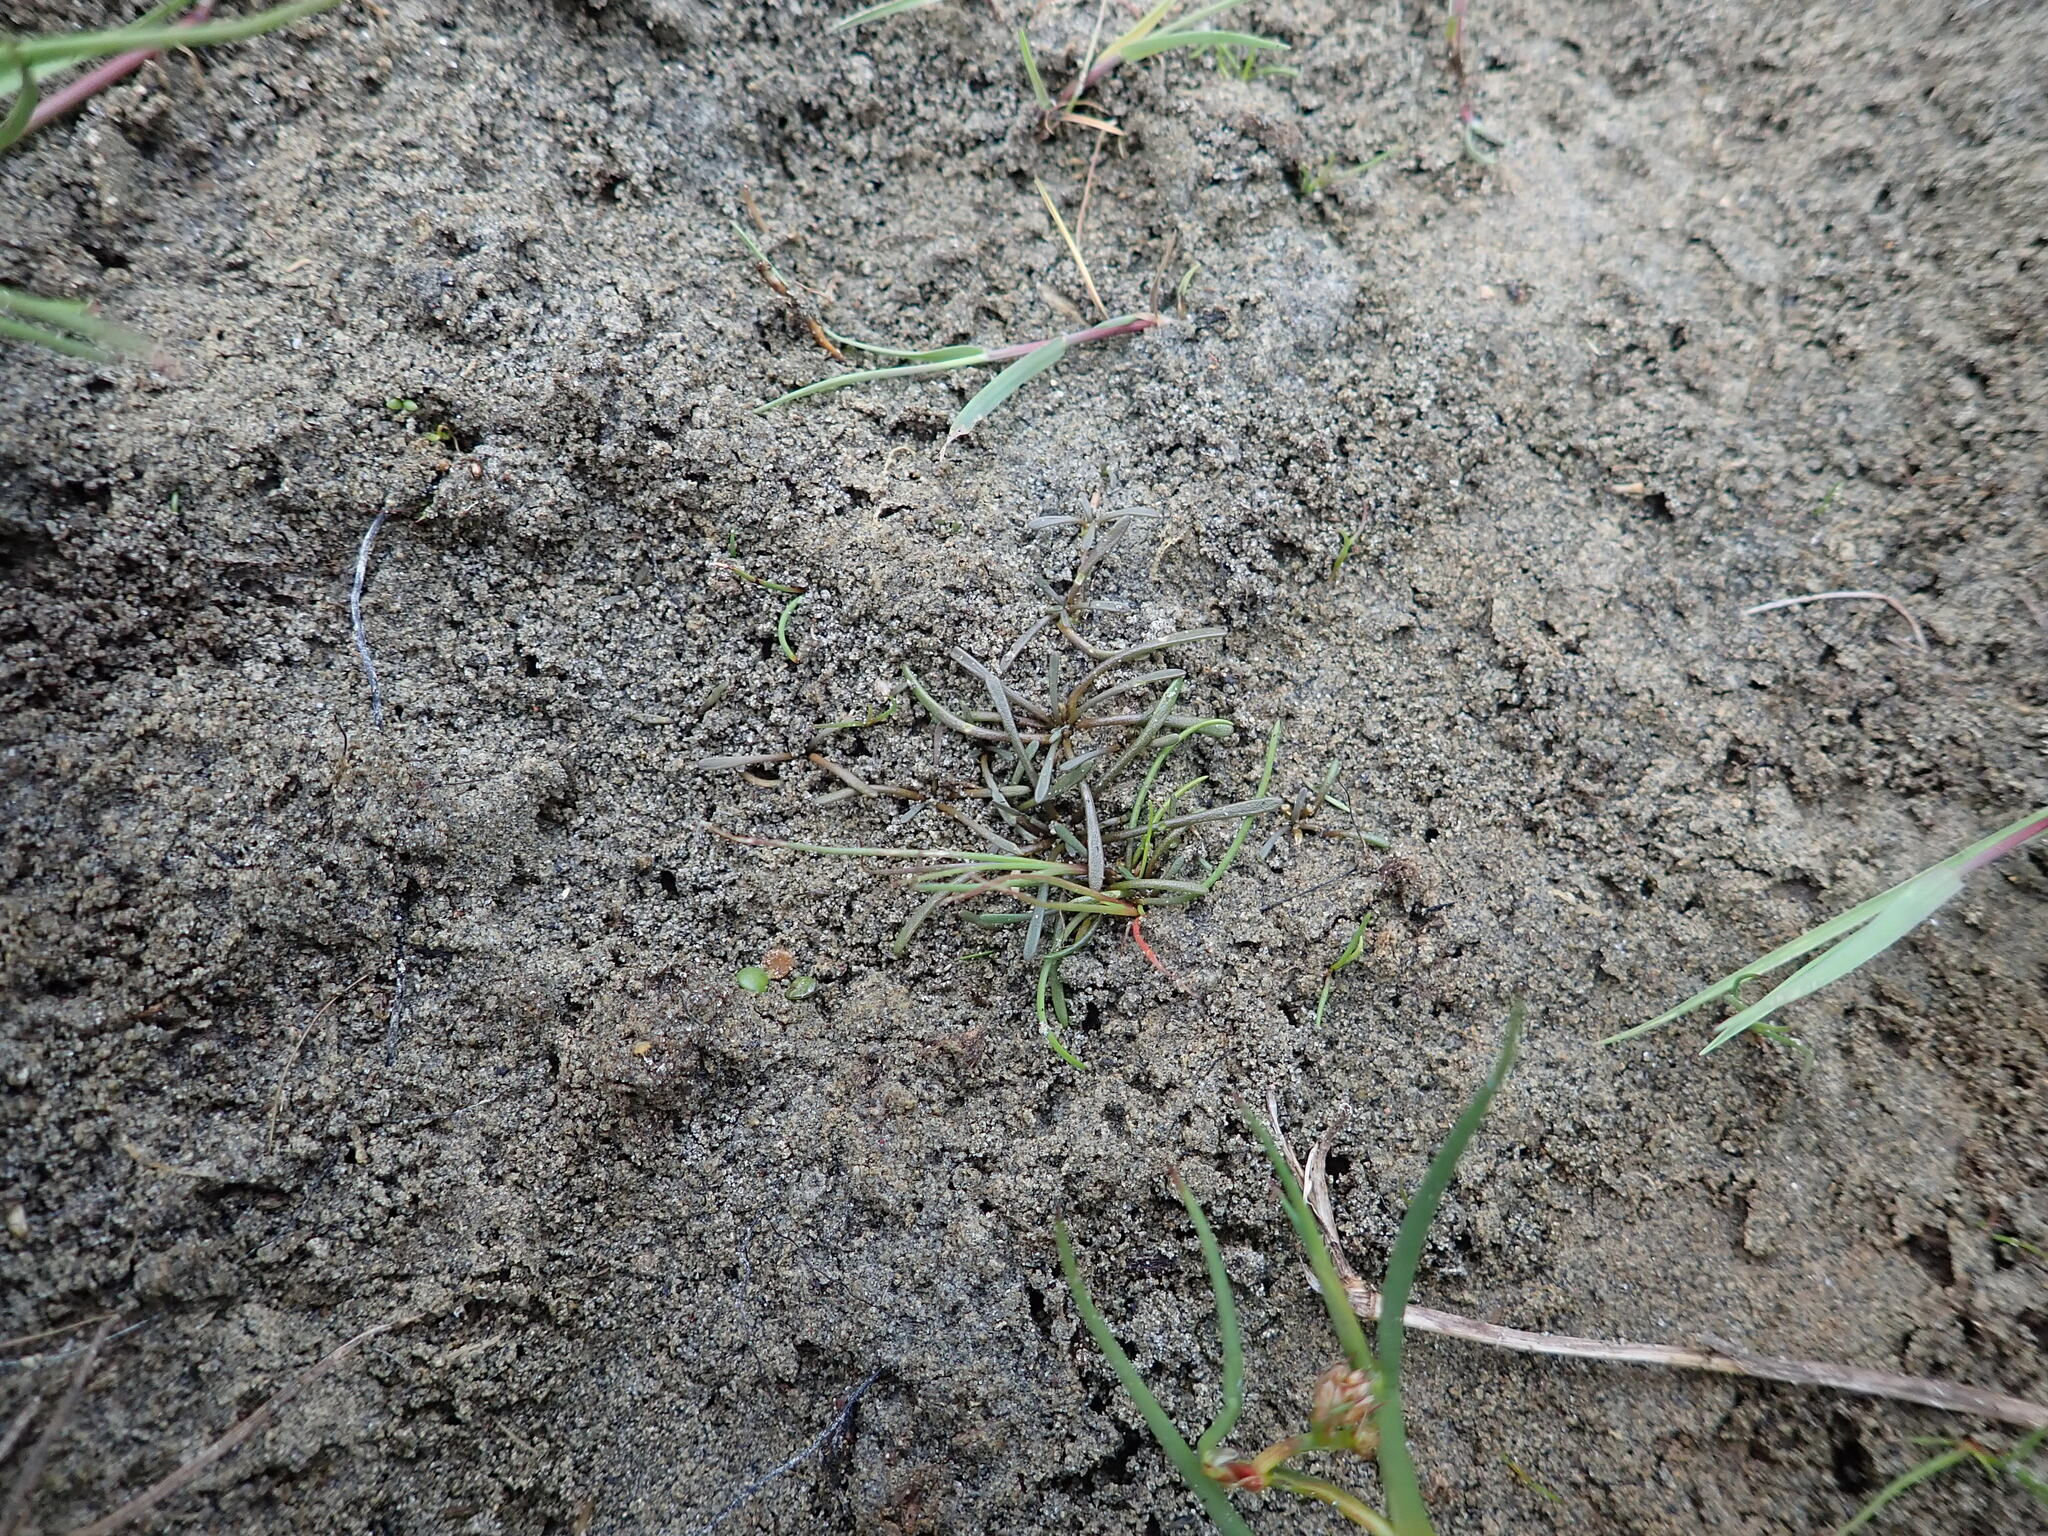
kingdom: Plantae
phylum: Tracheophyta
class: Magnoliopsida
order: Lamiales
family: Scrophulariaceae
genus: Limosella
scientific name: Limosella australis
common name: Welsh mudwort
